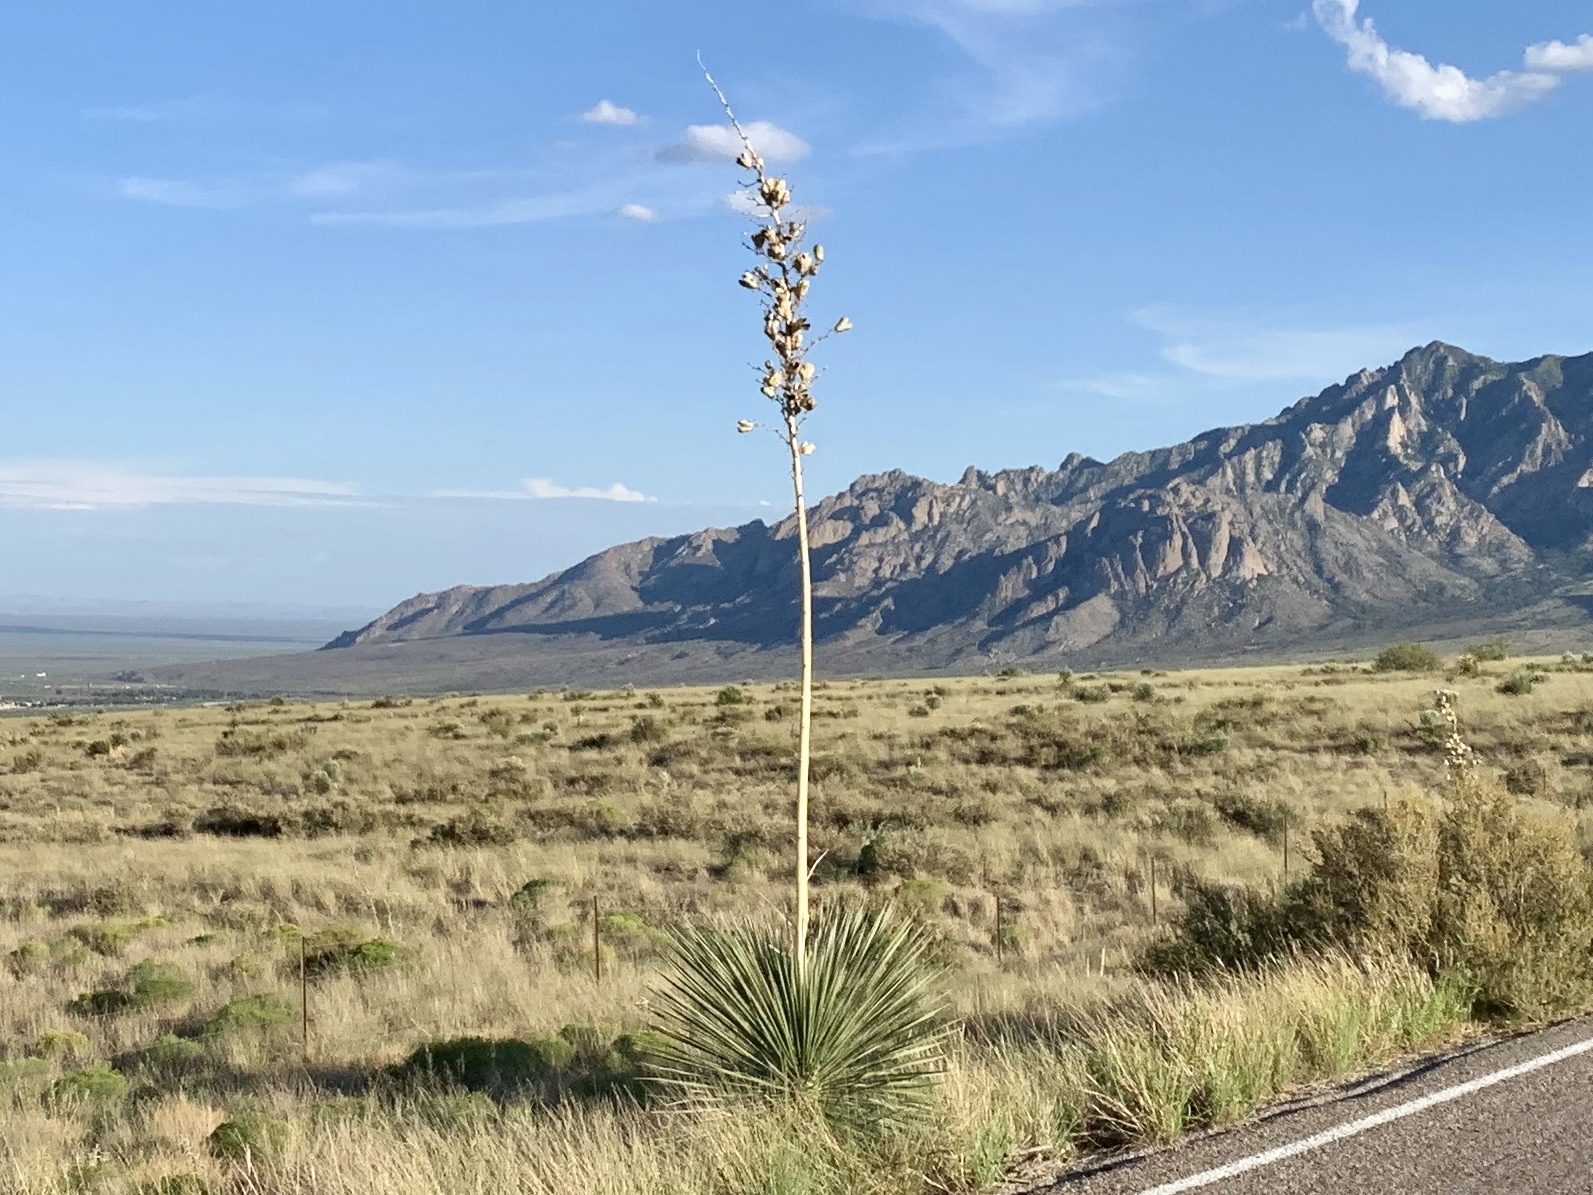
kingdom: Plantae
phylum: Tracheophyta
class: Liliopsida
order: Asparagales
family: Asparagaceae
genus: Yucca
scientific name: Yucca elata
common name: Palmella
